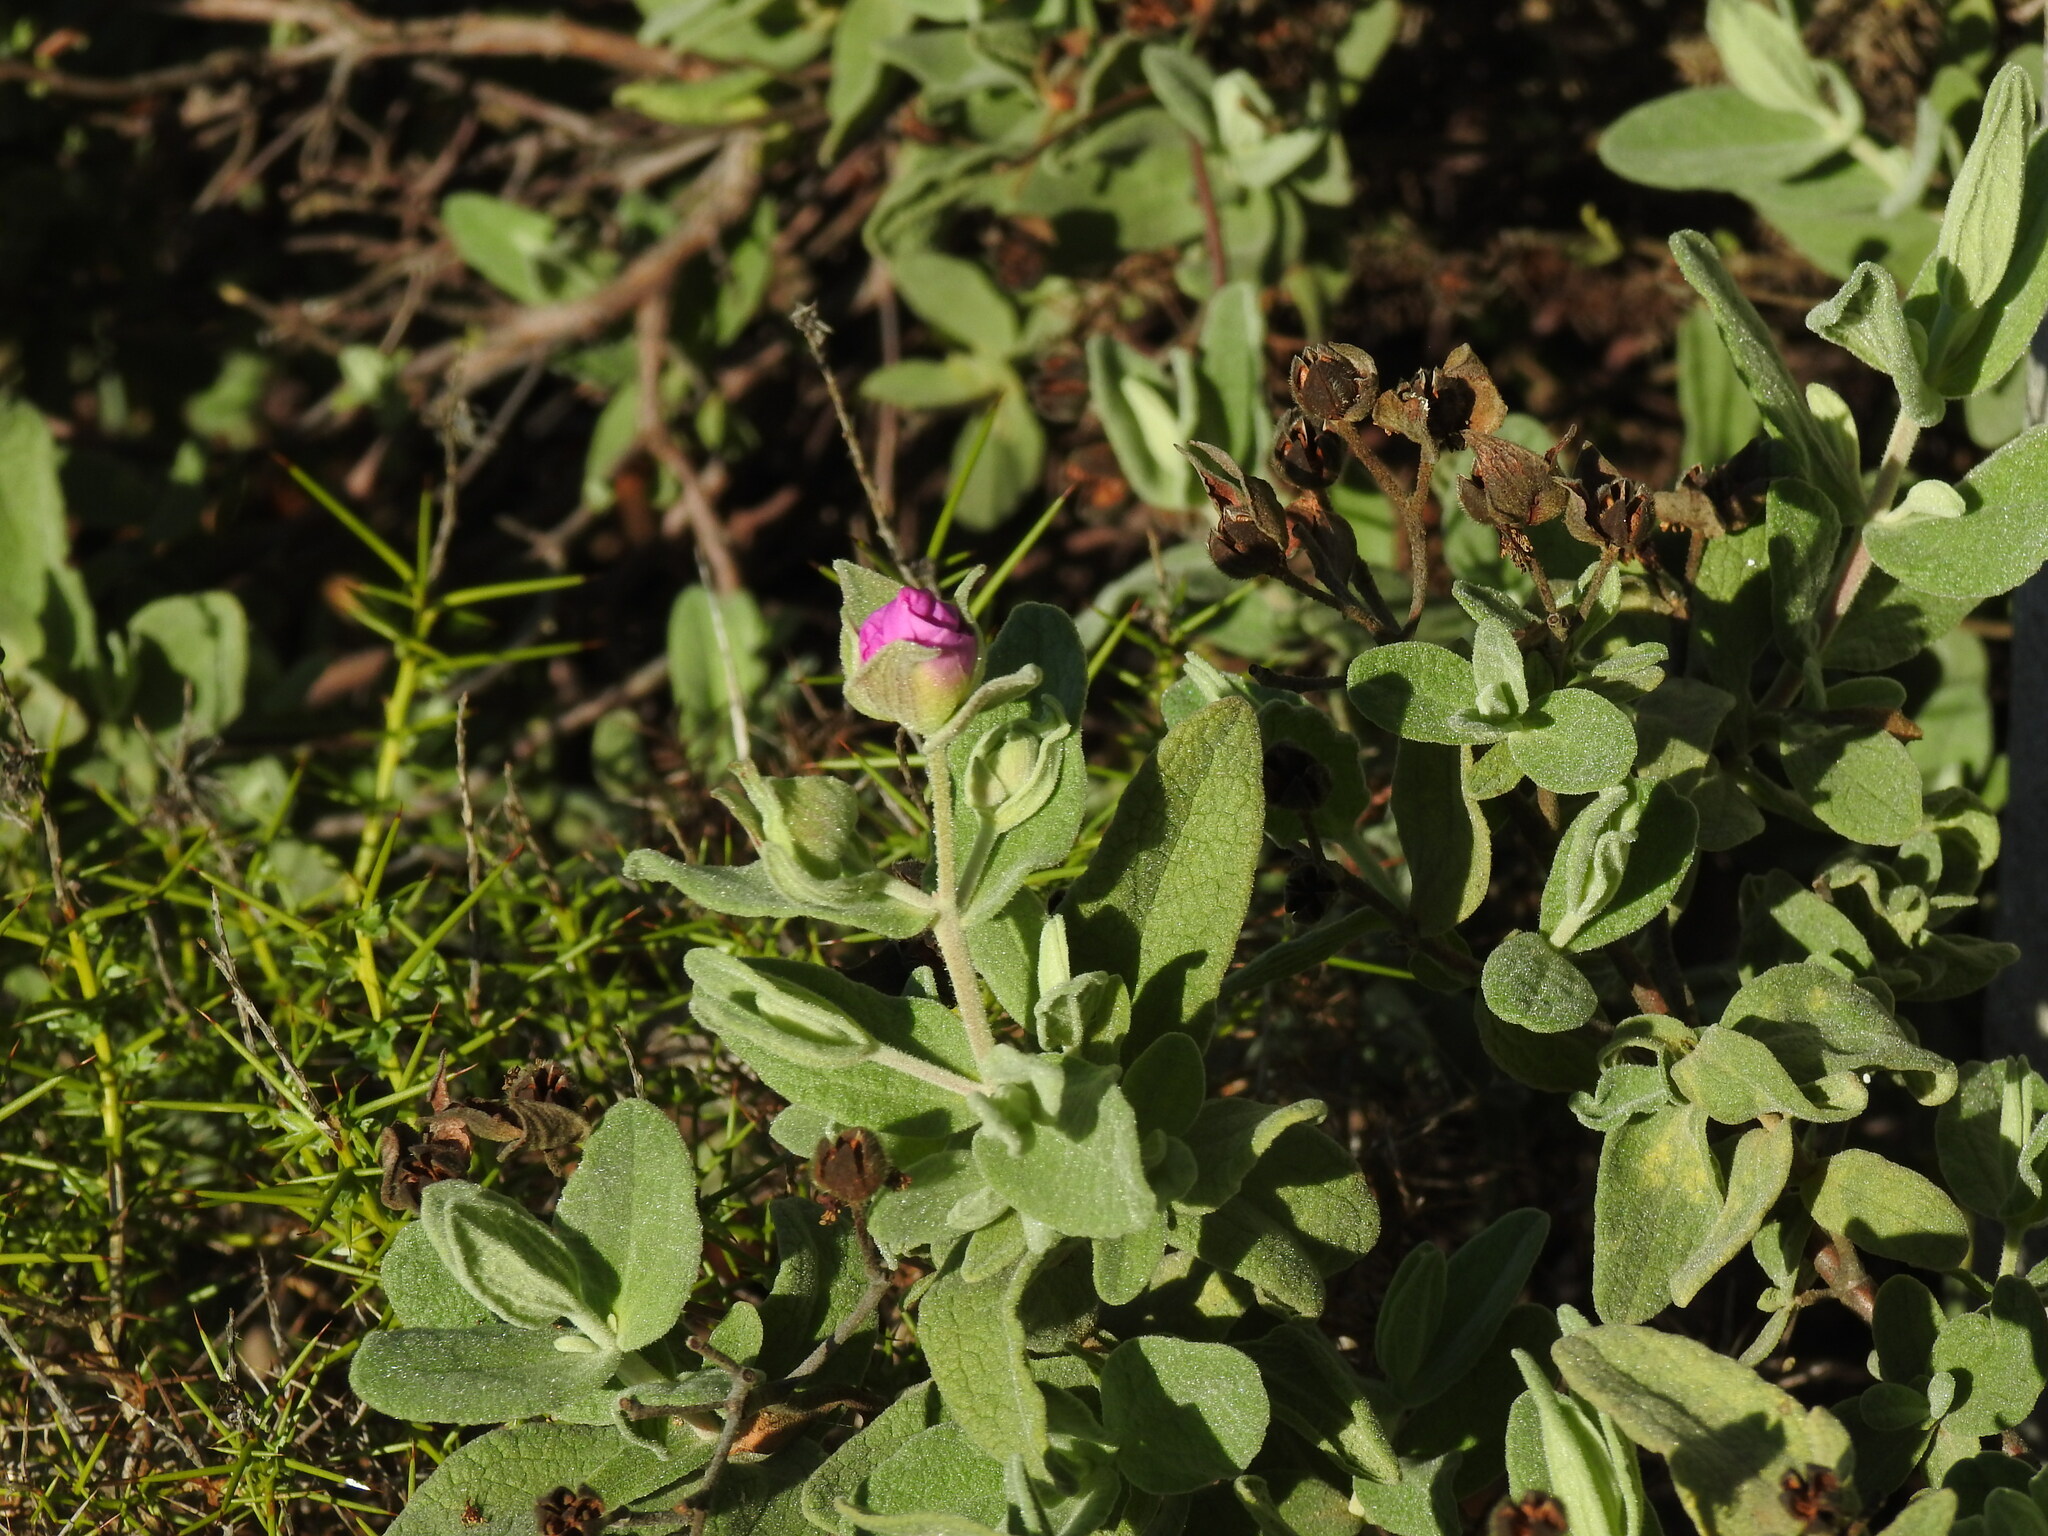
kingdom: Plantae
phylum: Tracheophyta
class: Magnoliopsida
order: Malvales
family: Cistaceae
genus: Cistus
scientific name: Cistus albidus
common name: White-leaf rock-rose
